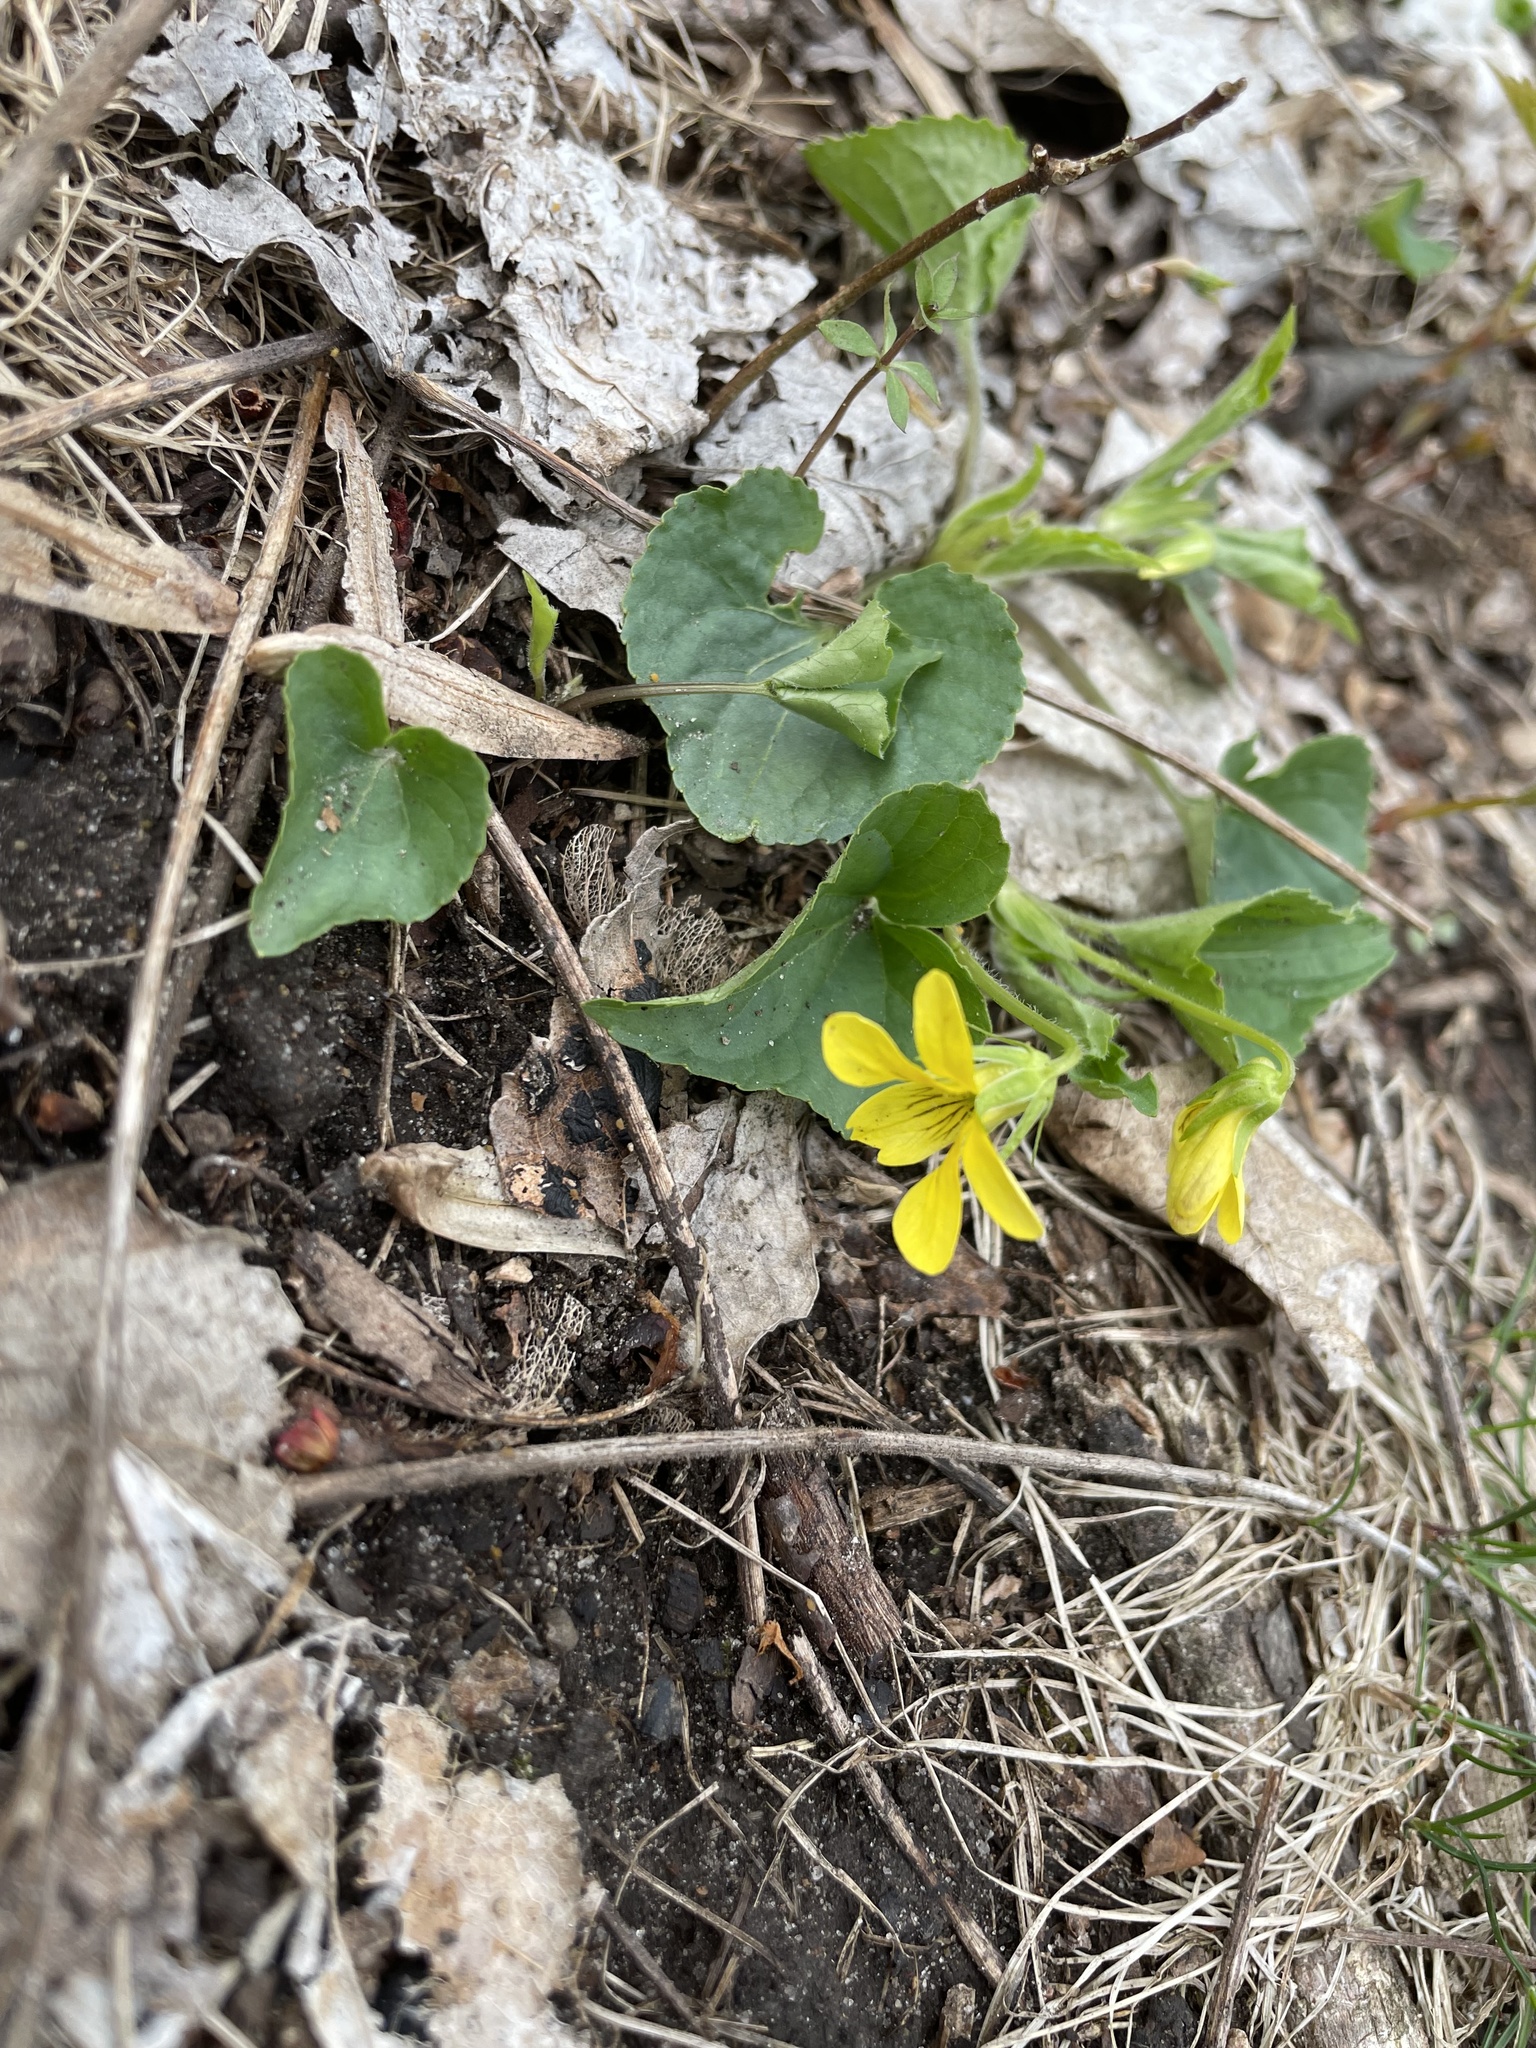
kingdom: Plantae
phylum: Tracheophyta
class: Magnoliopsida
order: Malpighiales
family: Violaceae
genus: Viola
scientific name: Viola eriocarpa
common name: Smooth yellow violet
